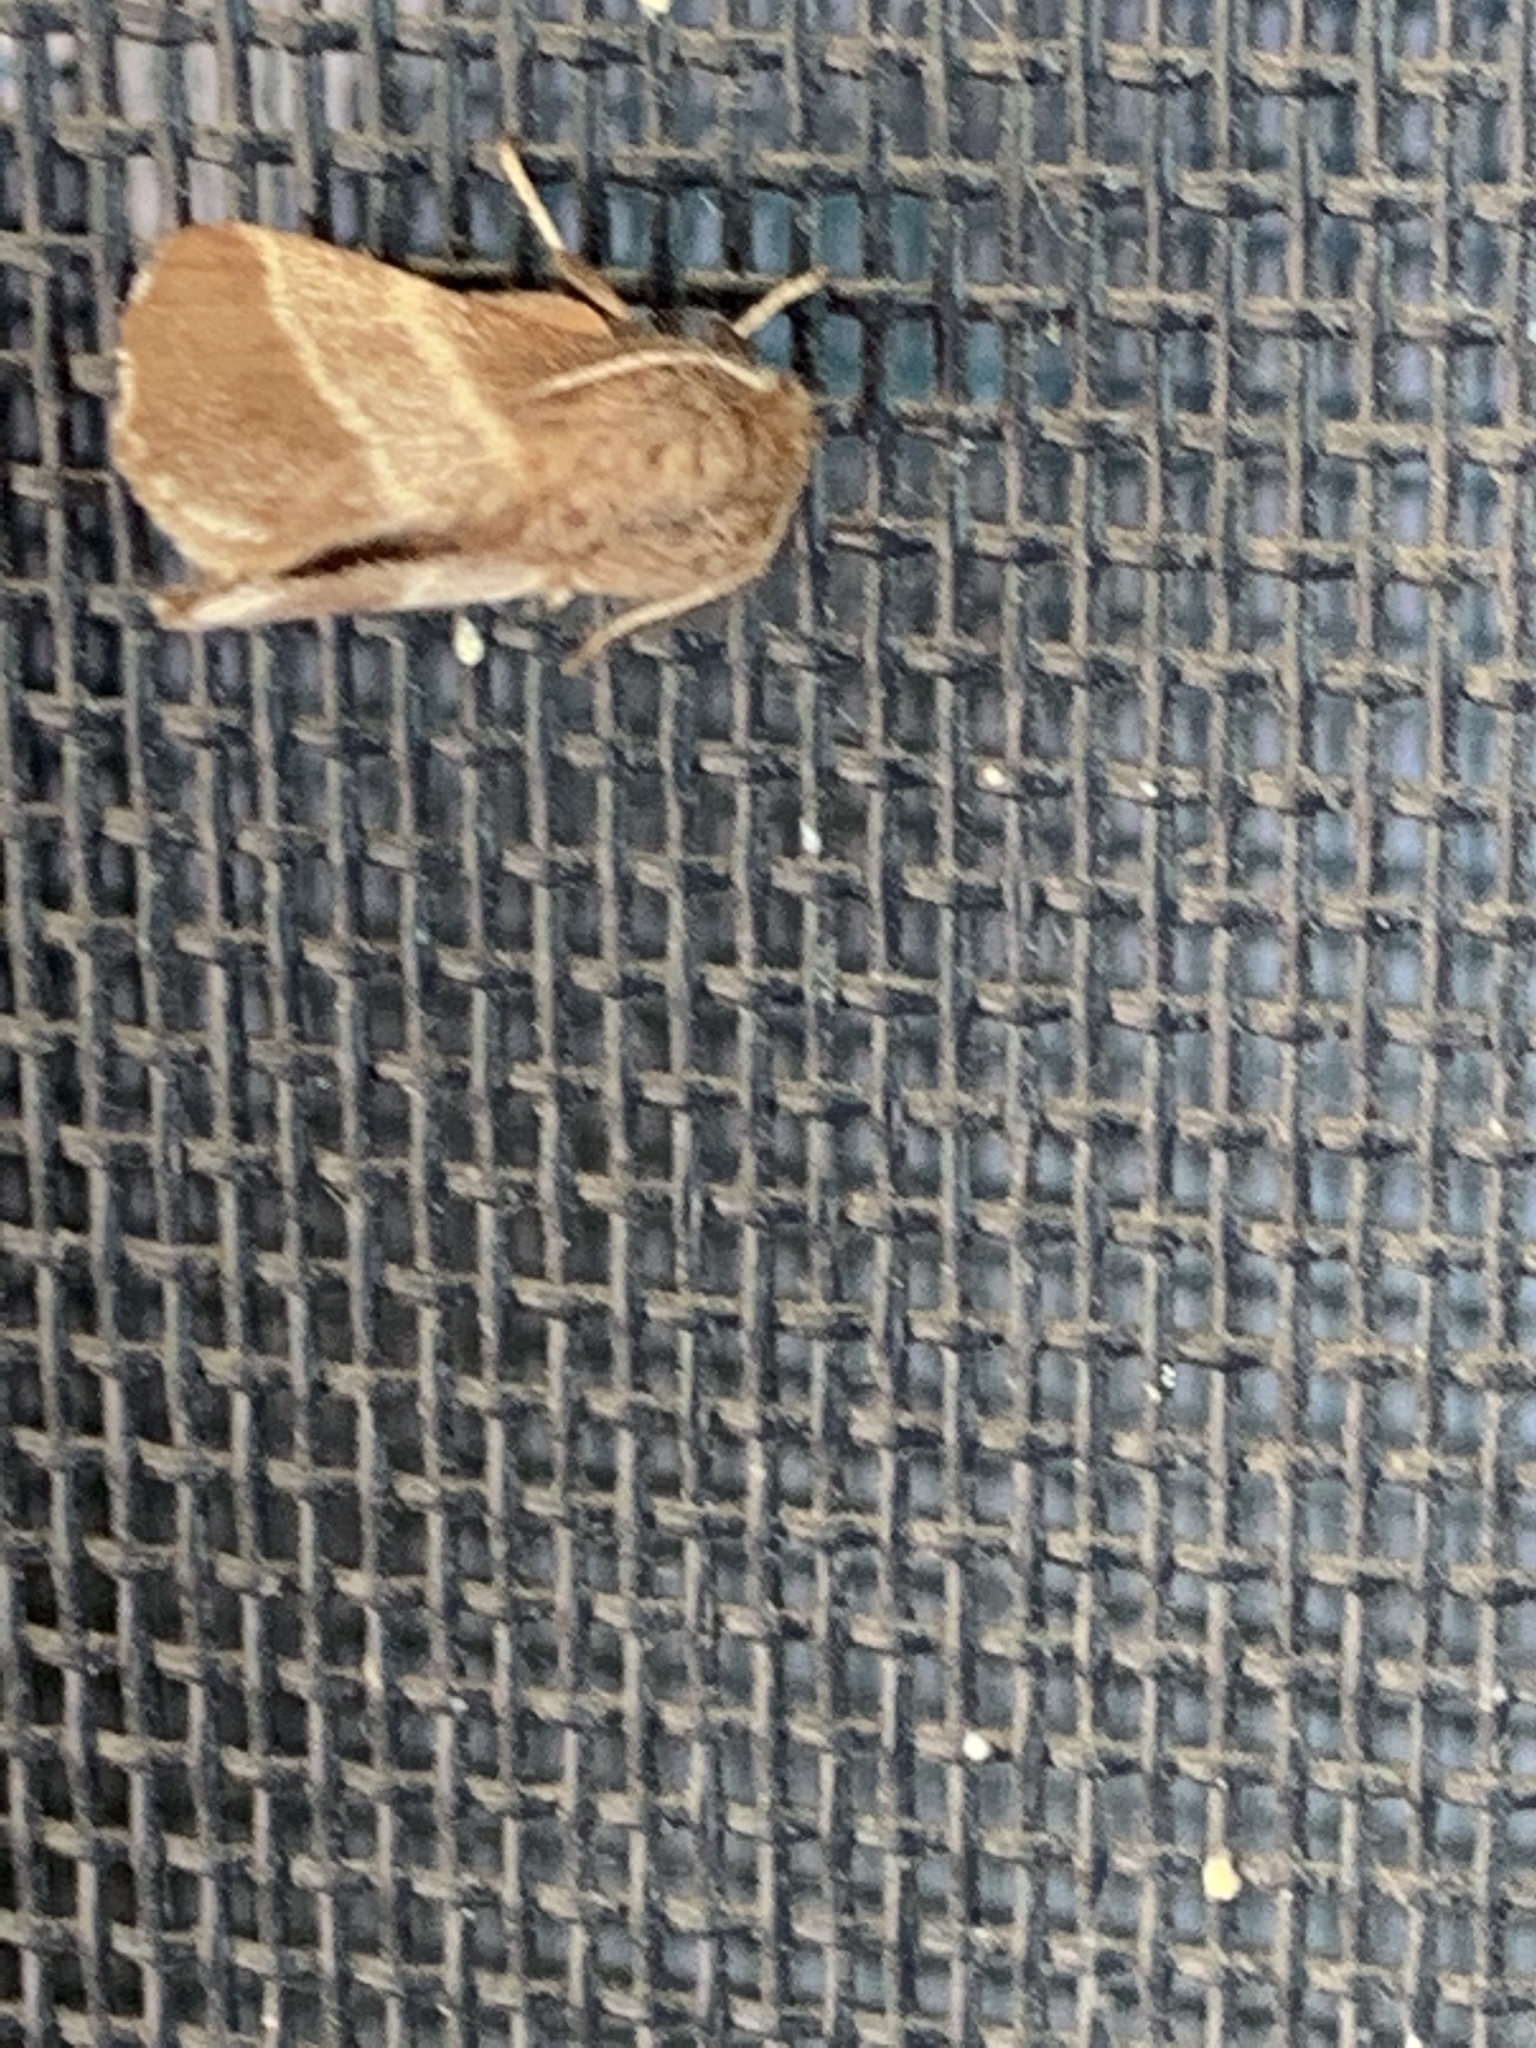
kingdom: Animalia
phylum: Arthropoda
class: Insecta
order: Lepidoptera
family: Lasiocampidae
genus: Malacosoma
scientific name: Malacosoma americana
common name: Eastern tent caterpillar moth
